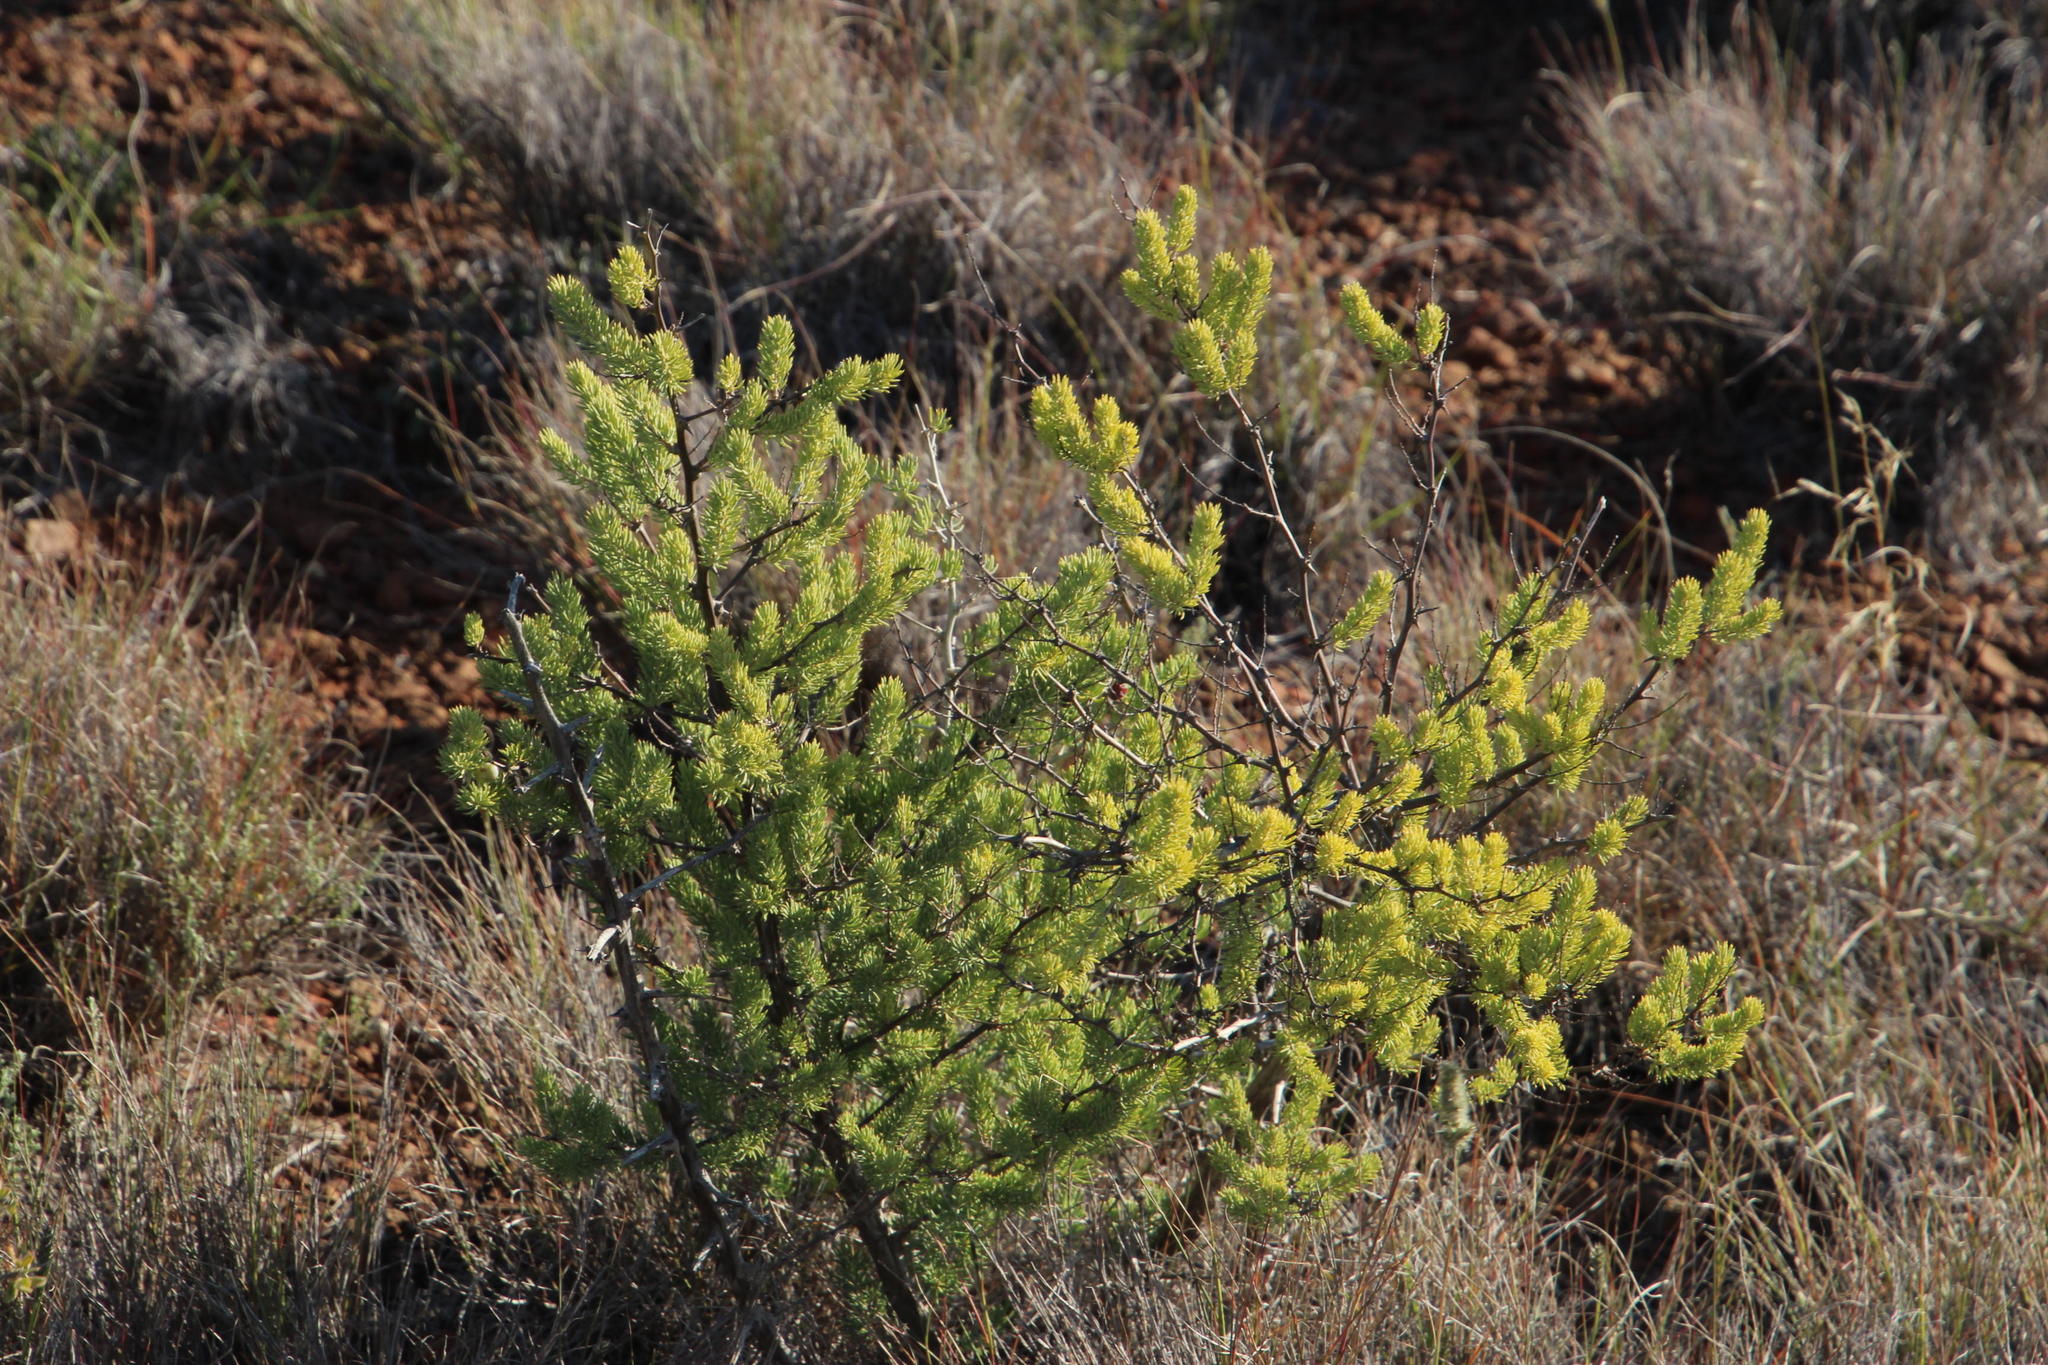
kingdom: Plantae
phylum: Tracheophyta
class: Liliopsida
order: Asparagales
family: Asparagaceae
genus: Asparagus
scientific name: Asparagus mucronatus
